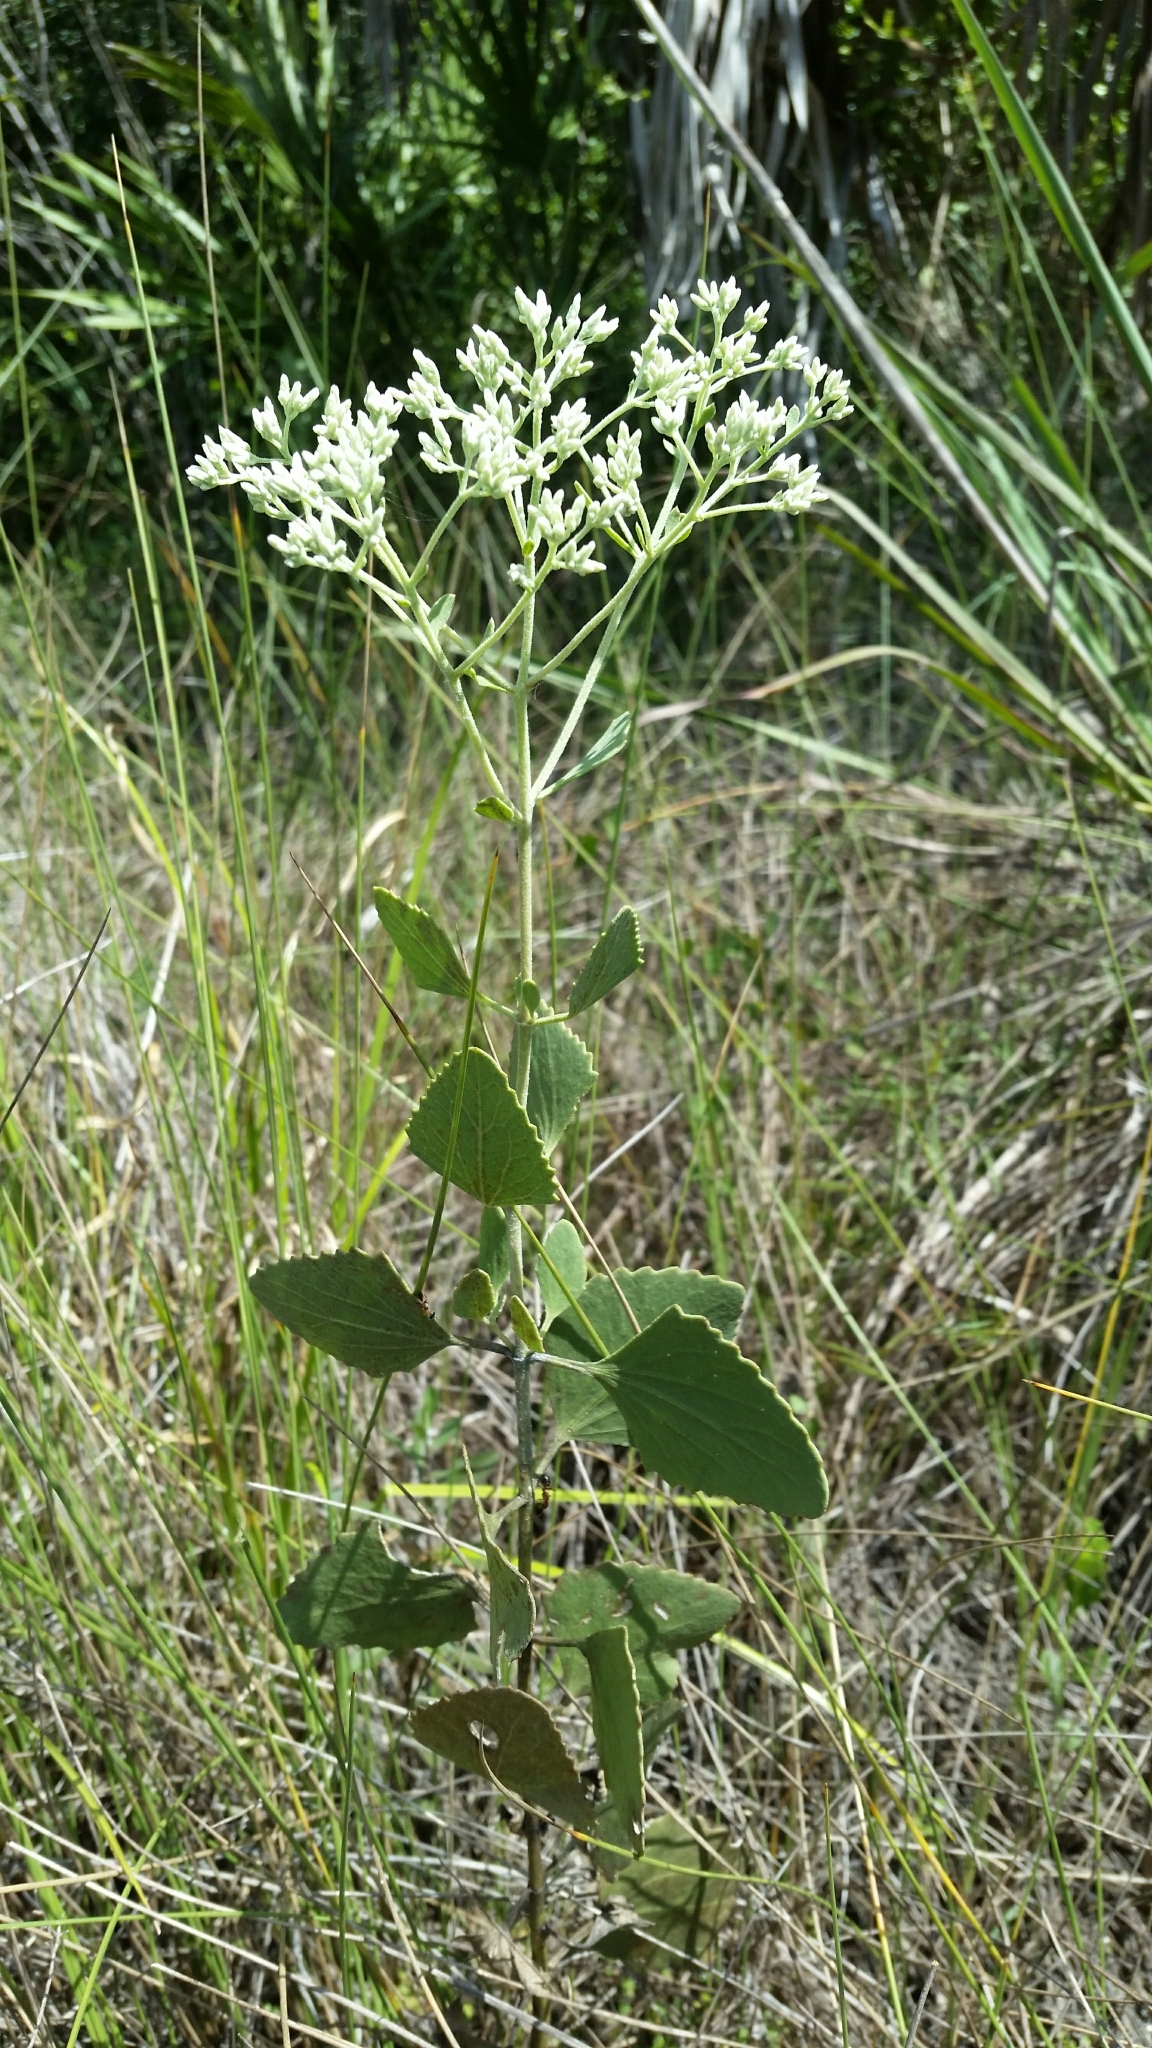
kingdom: Plantae
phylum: Tracheophyta
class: Magnoliopsida
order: Asterales
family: Asteraceae
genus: Eupatorium
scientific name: Eupatorium mikanioides
